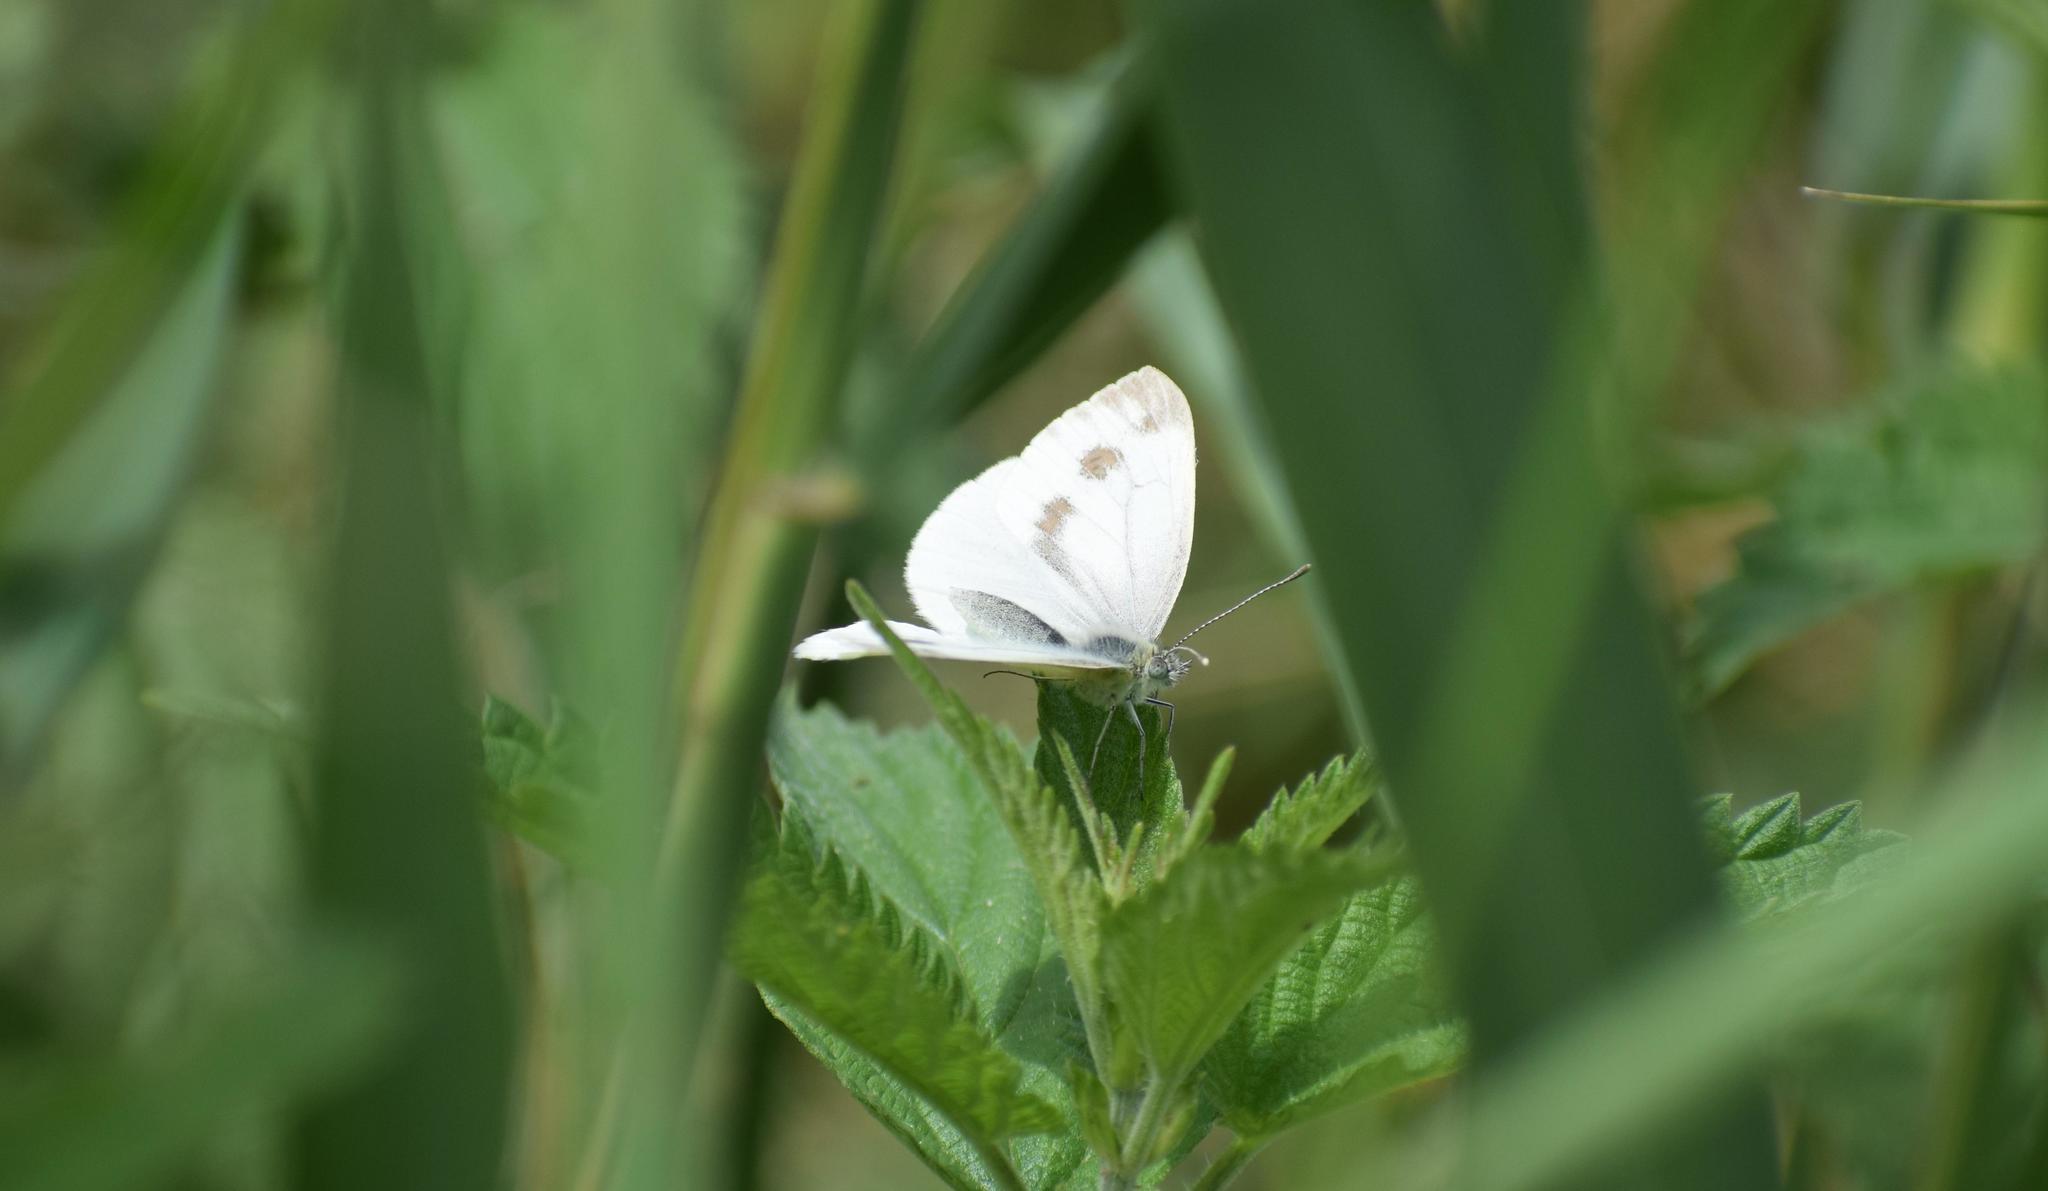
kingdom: Animalia
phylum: Arthropoda
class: Insecta
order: Lepidoptera
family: Pieridae
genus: Pieris
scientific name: Pieris napi
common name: Green-veined white
